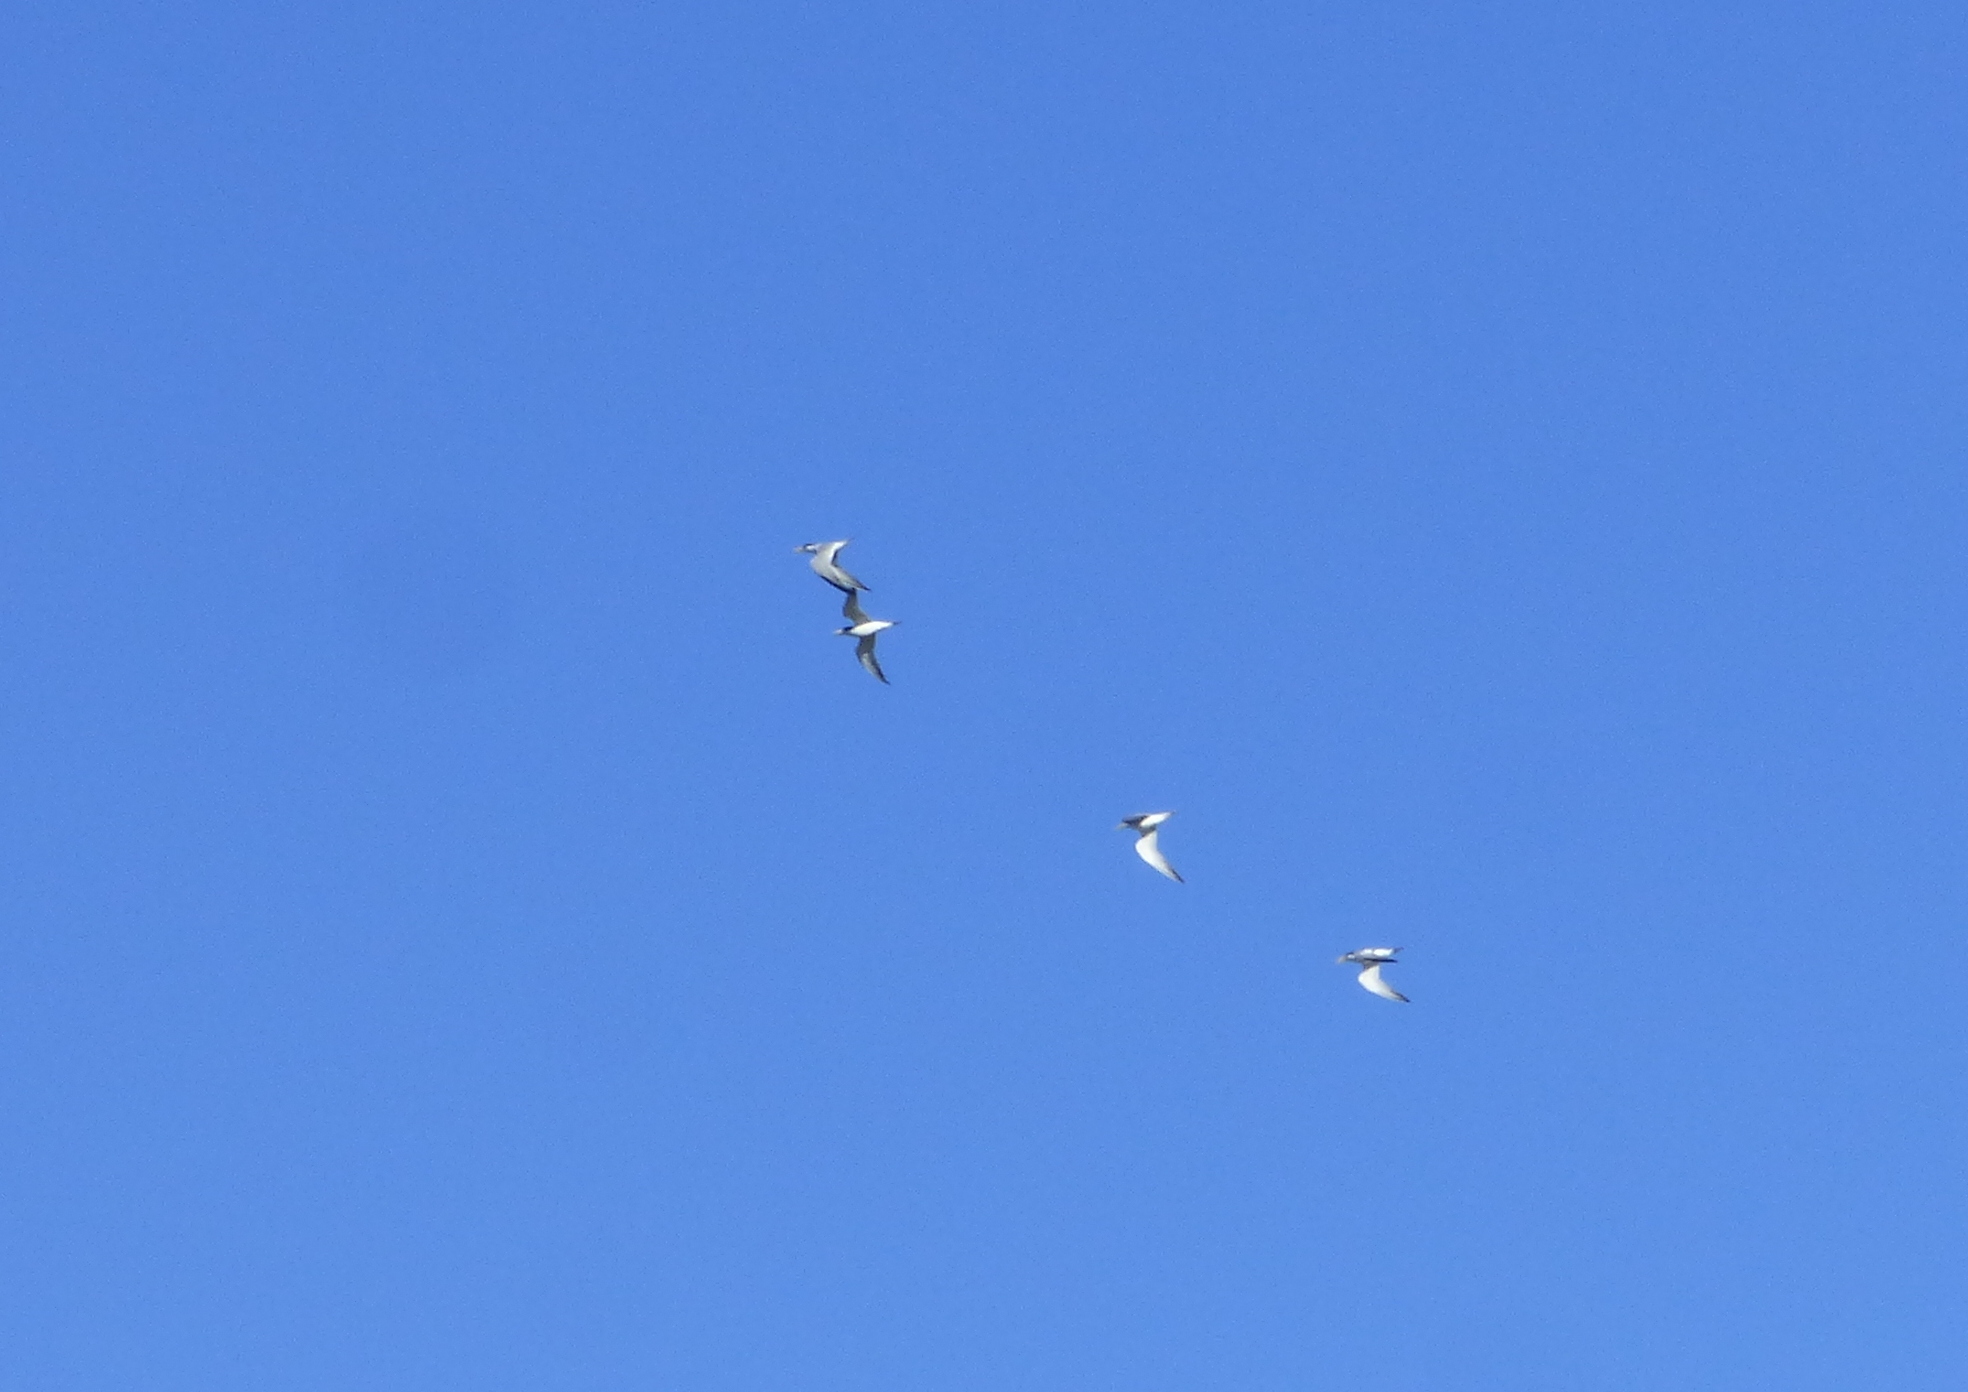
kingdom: Animalia
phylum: Chordata
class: Aves
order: Charadriiformes
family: Laridae
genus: Sternula
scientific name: Sternula superciliaris
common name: Yellow-billed tern
